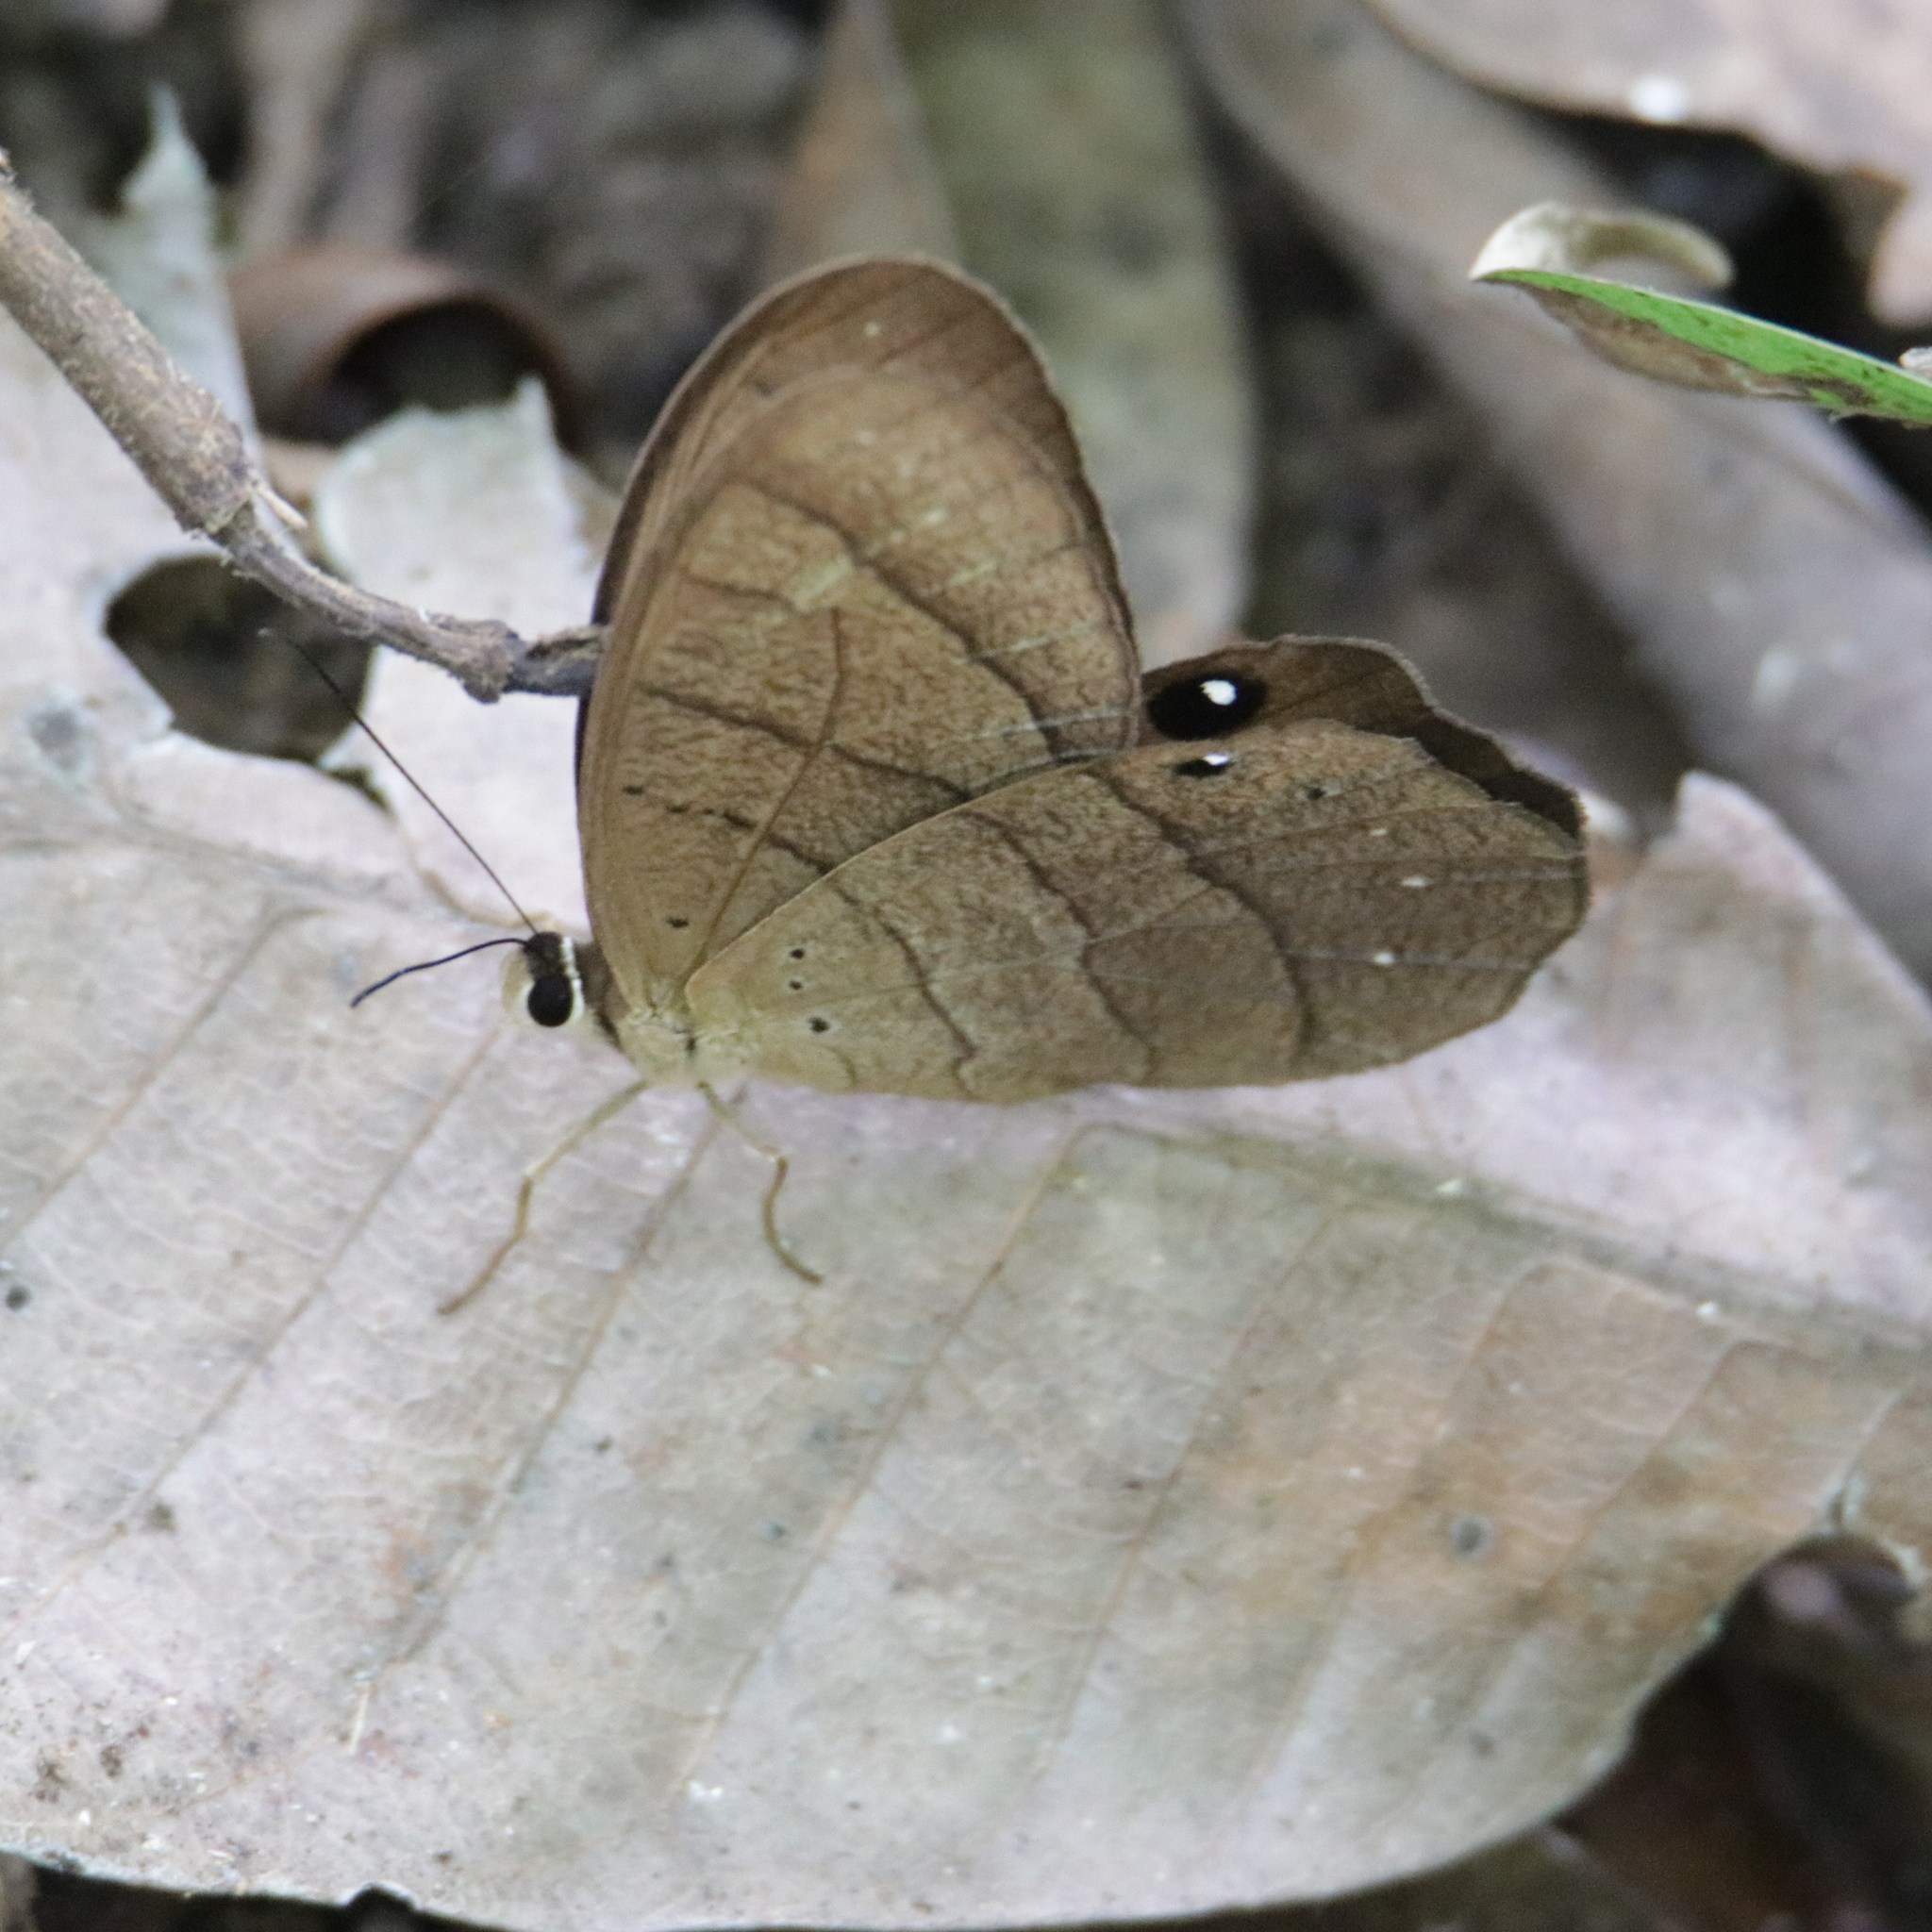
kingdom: Animalia
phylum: Arthropoda
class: Insecta
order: Lepidoptera
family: Nymphalidae
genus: Pierella
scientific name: Pierella lena
